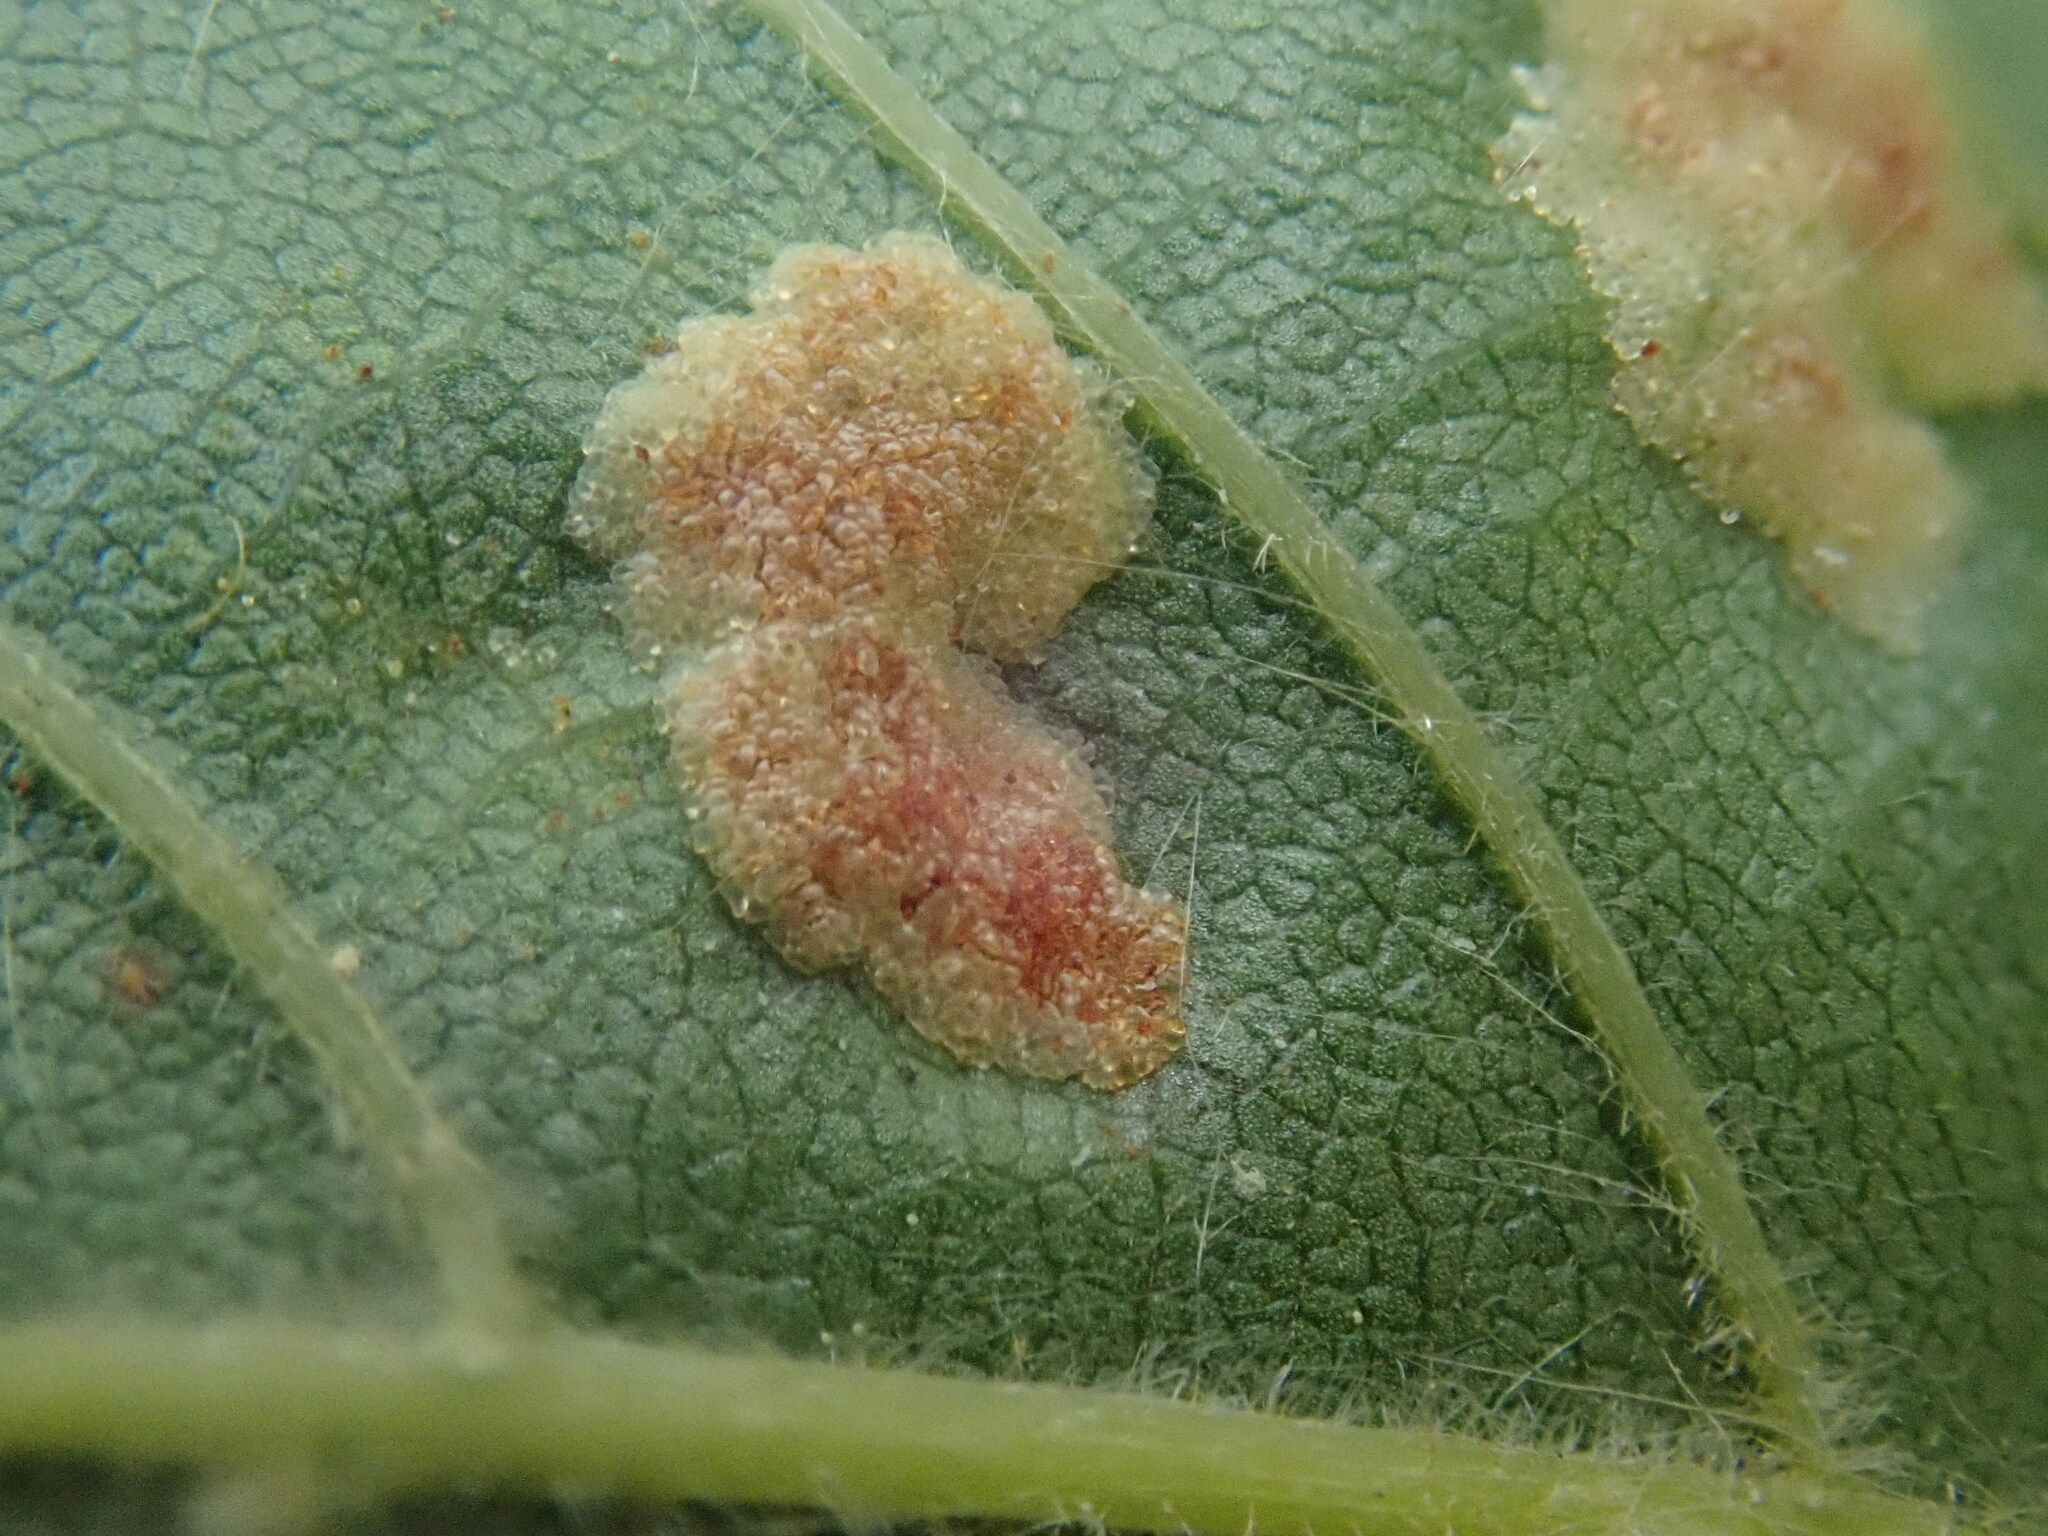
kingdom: Animalia
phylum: Arthropoda
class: Arachnida
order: Trombidiformes
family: Eriophyidae
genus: Acalitus
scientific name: Acalitus
